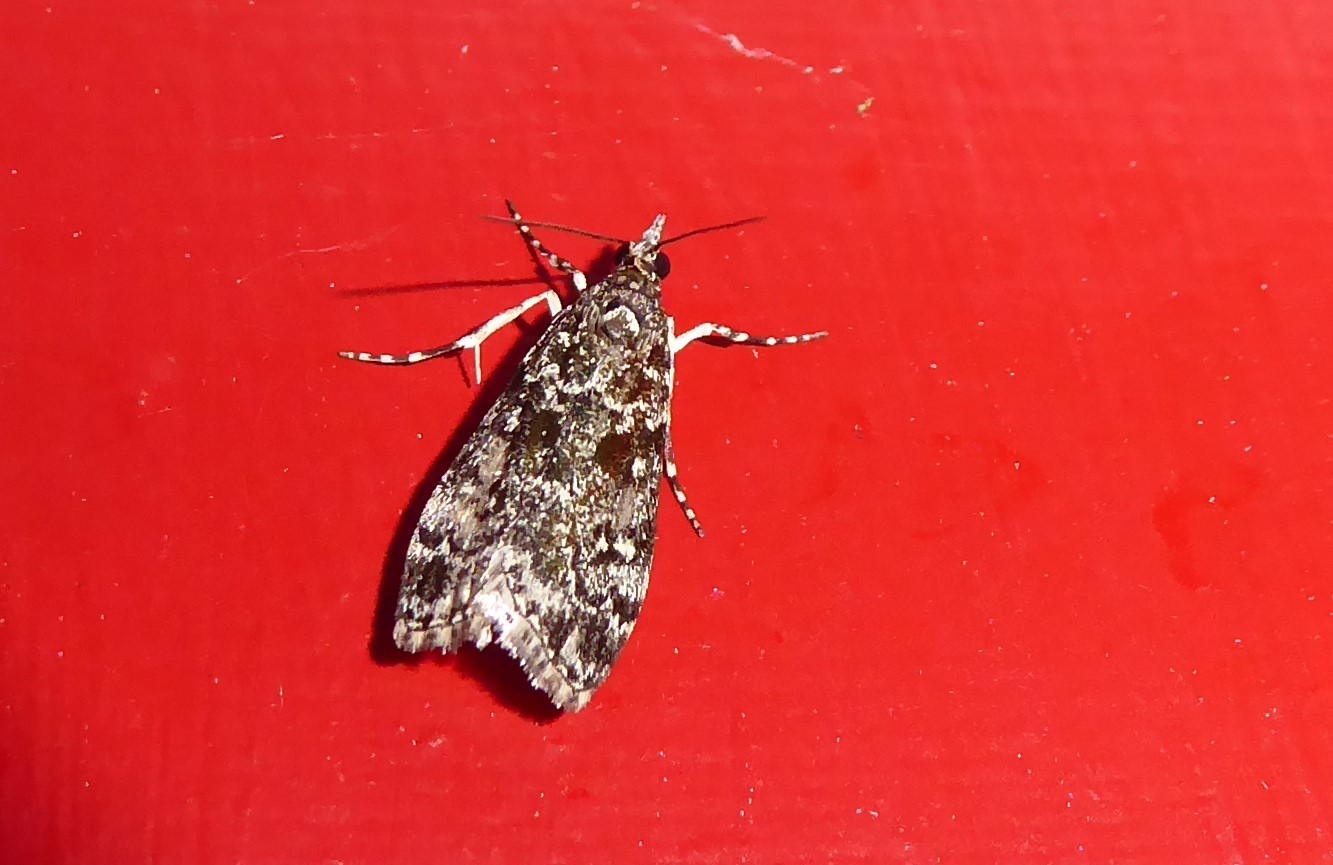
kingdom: Animalia
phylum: Arthropoda
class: Insecta
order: Lepidoptera
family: Crambidae
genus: Eudonia
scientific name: Eudonia philerga
